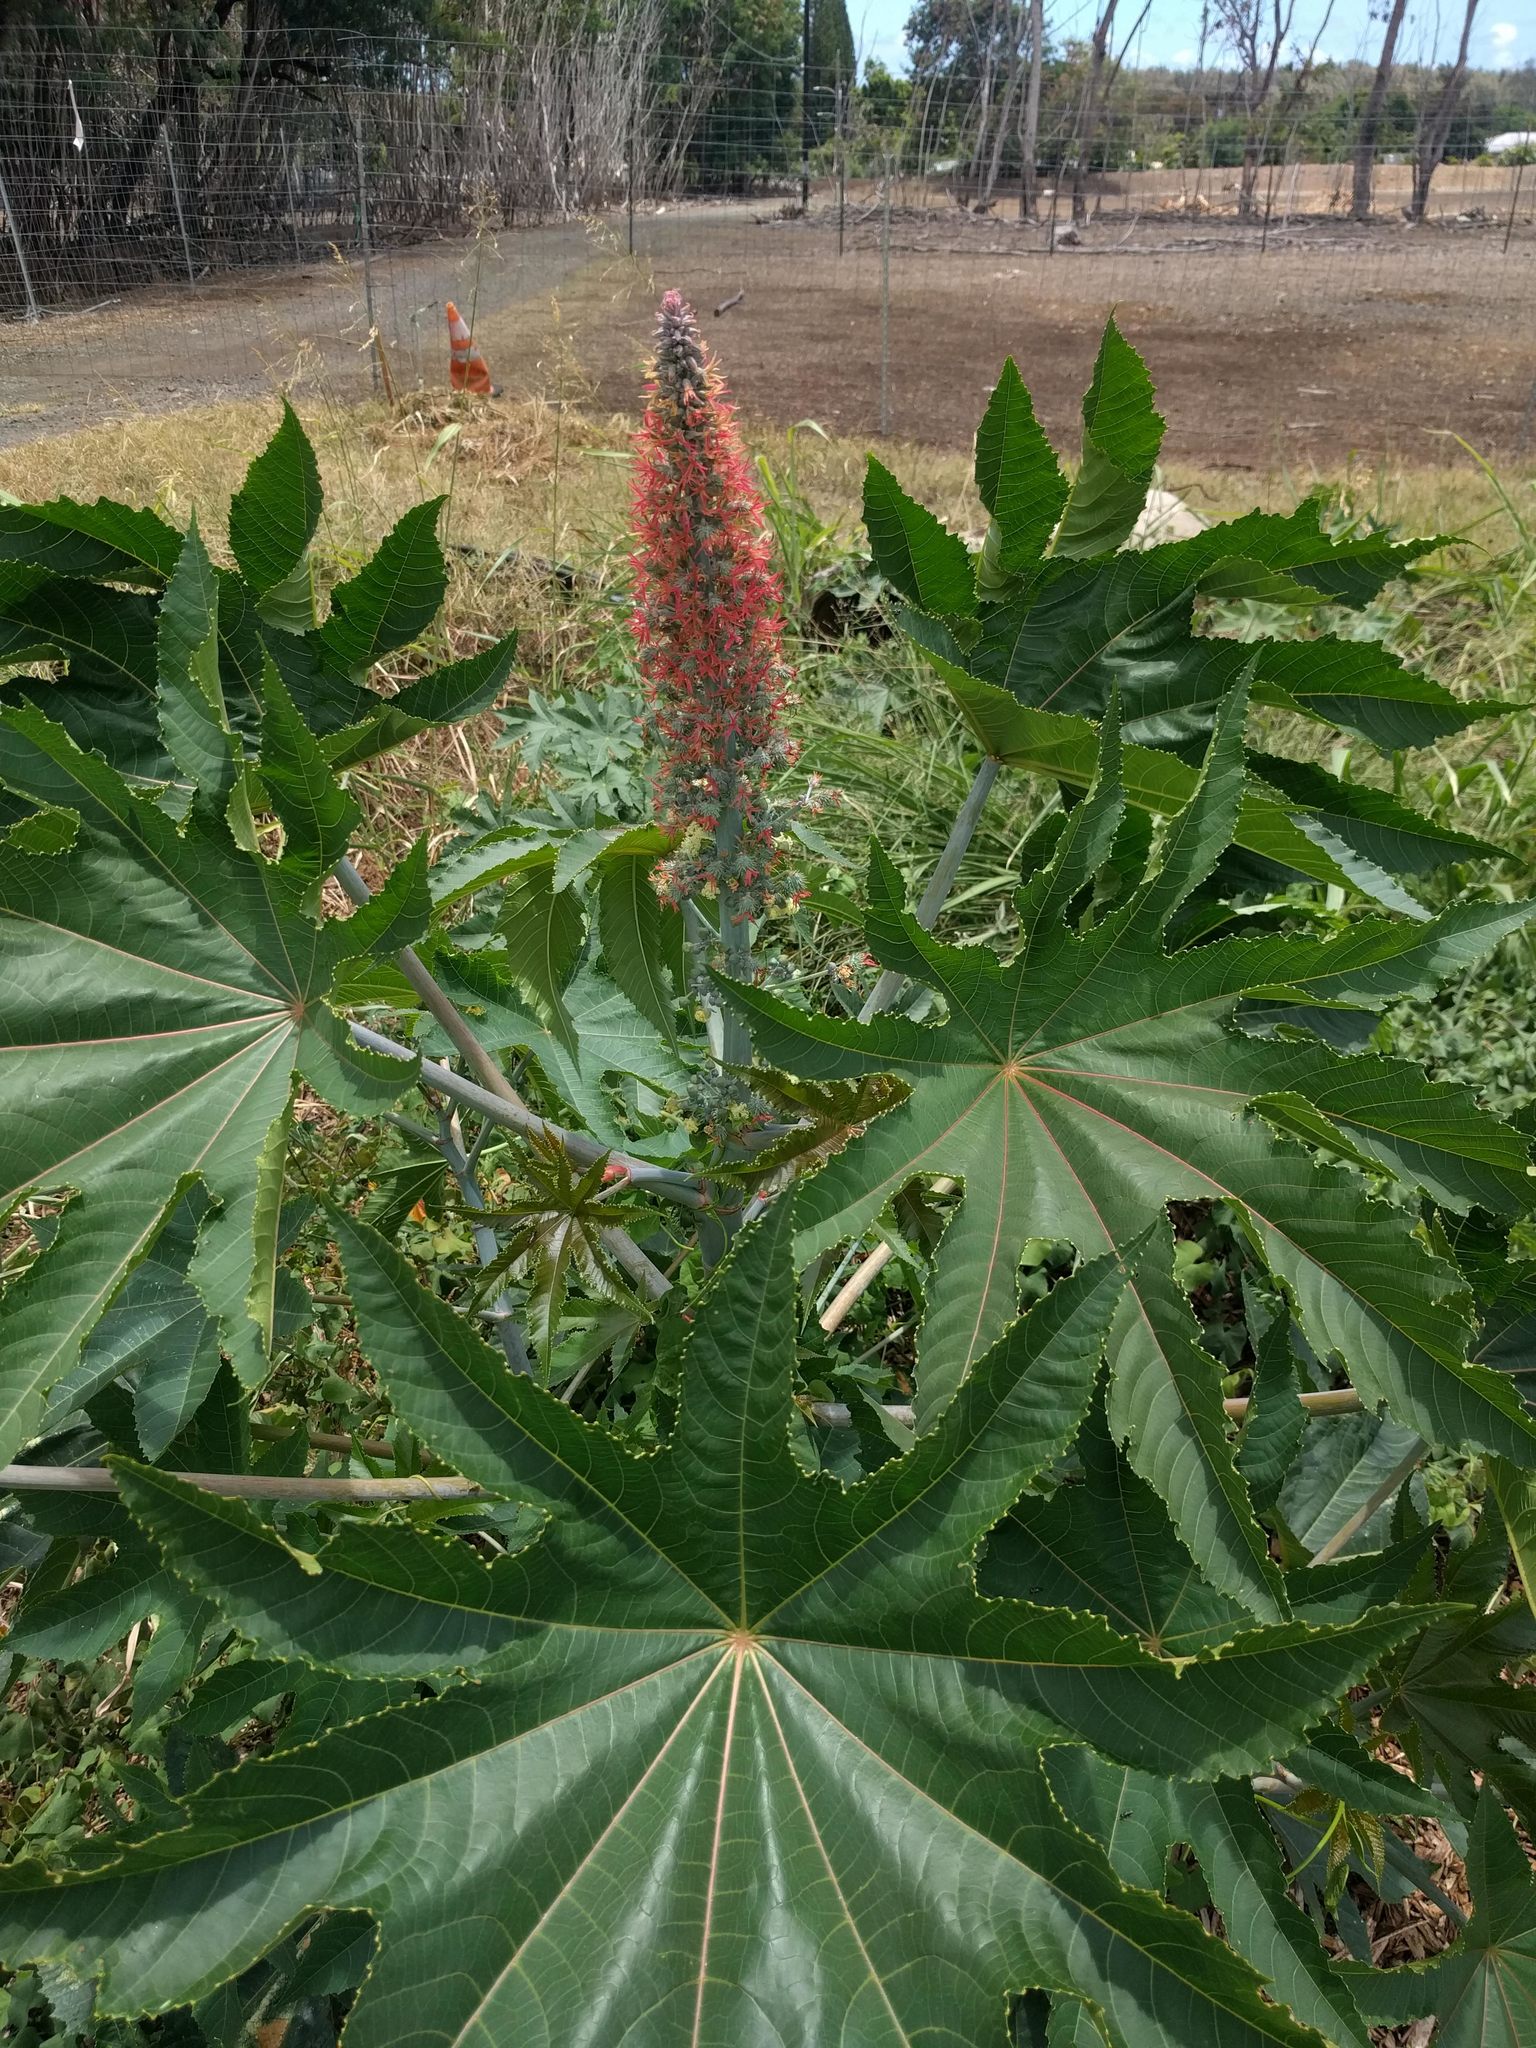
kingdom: Plantae
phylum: Tracheophyta
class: Magnoliopsida
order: Malpighiales
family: Euphorbiaceae
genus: Ricinus
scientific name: Ricinus communis
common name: Castor-oil-plant
